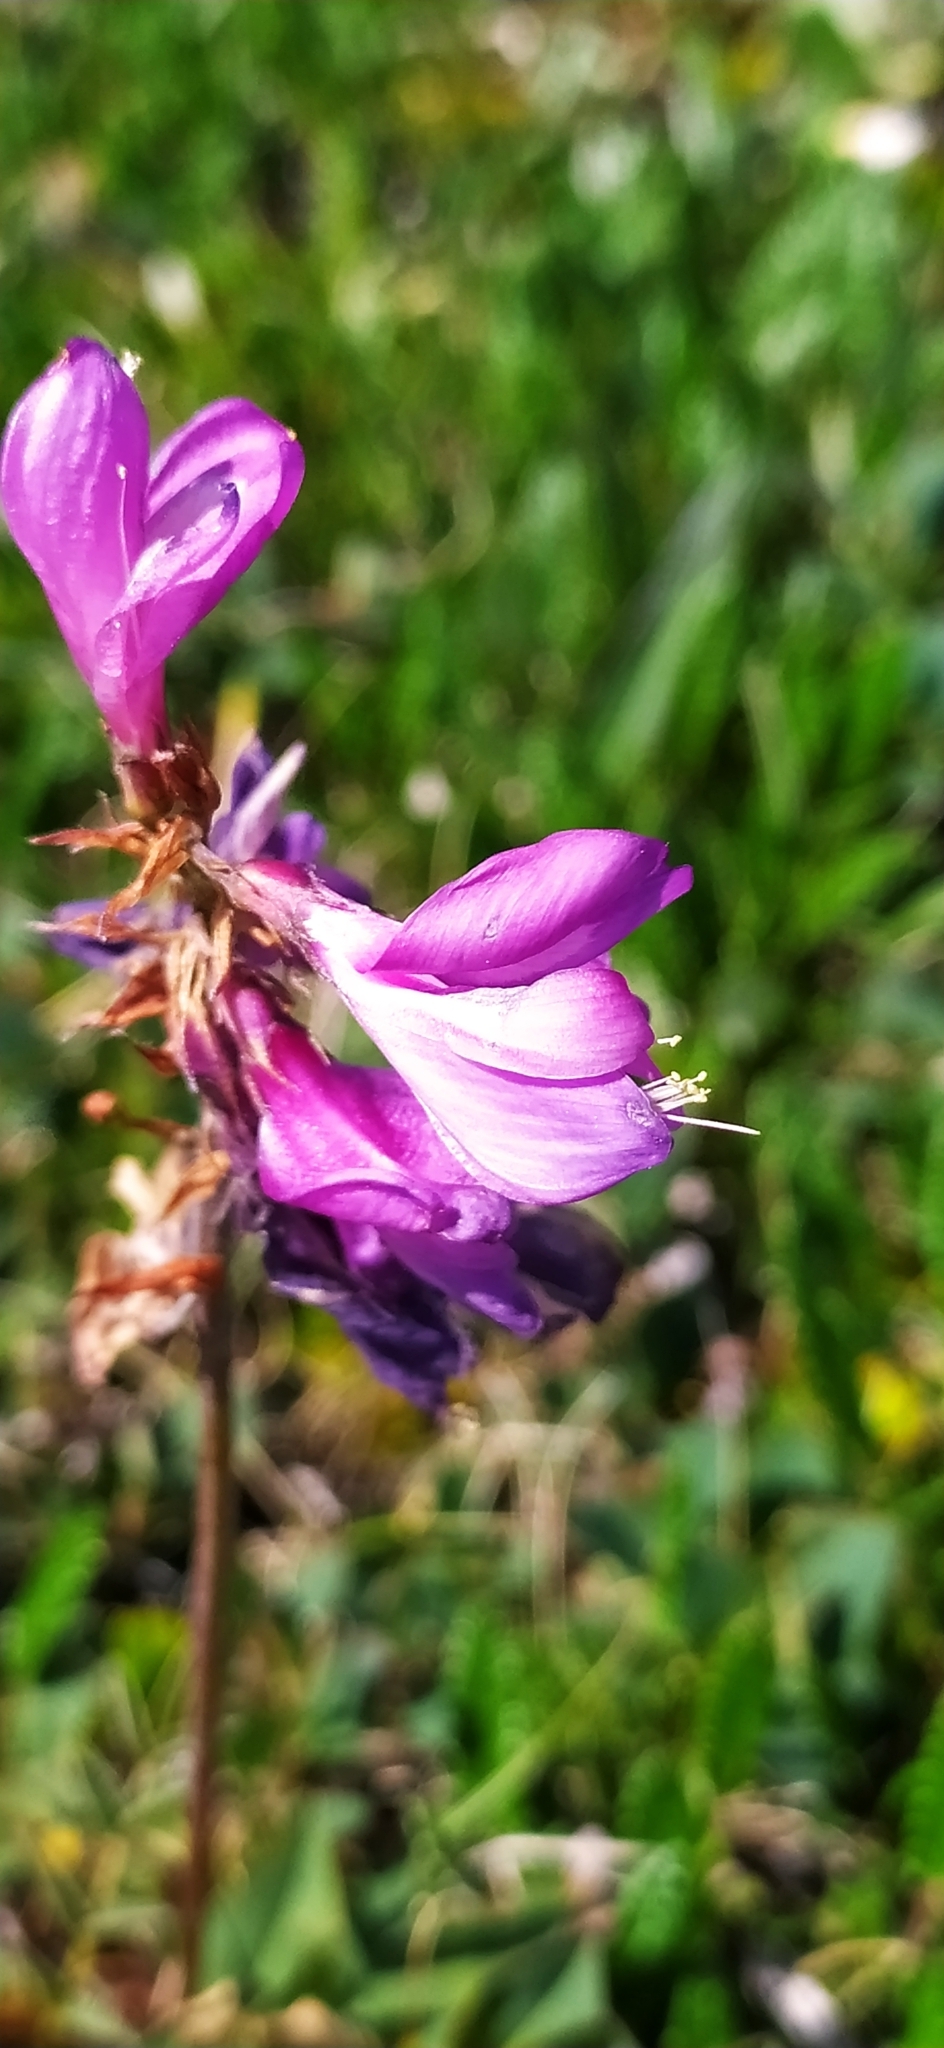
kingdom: Plantae
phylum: Tracheophyta
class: Magnoliopsida
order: Fabales
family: Fabaceae
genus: Hedysarum
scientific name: Hedysarum hedysaroides
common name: Alpine french-honeysuckle
